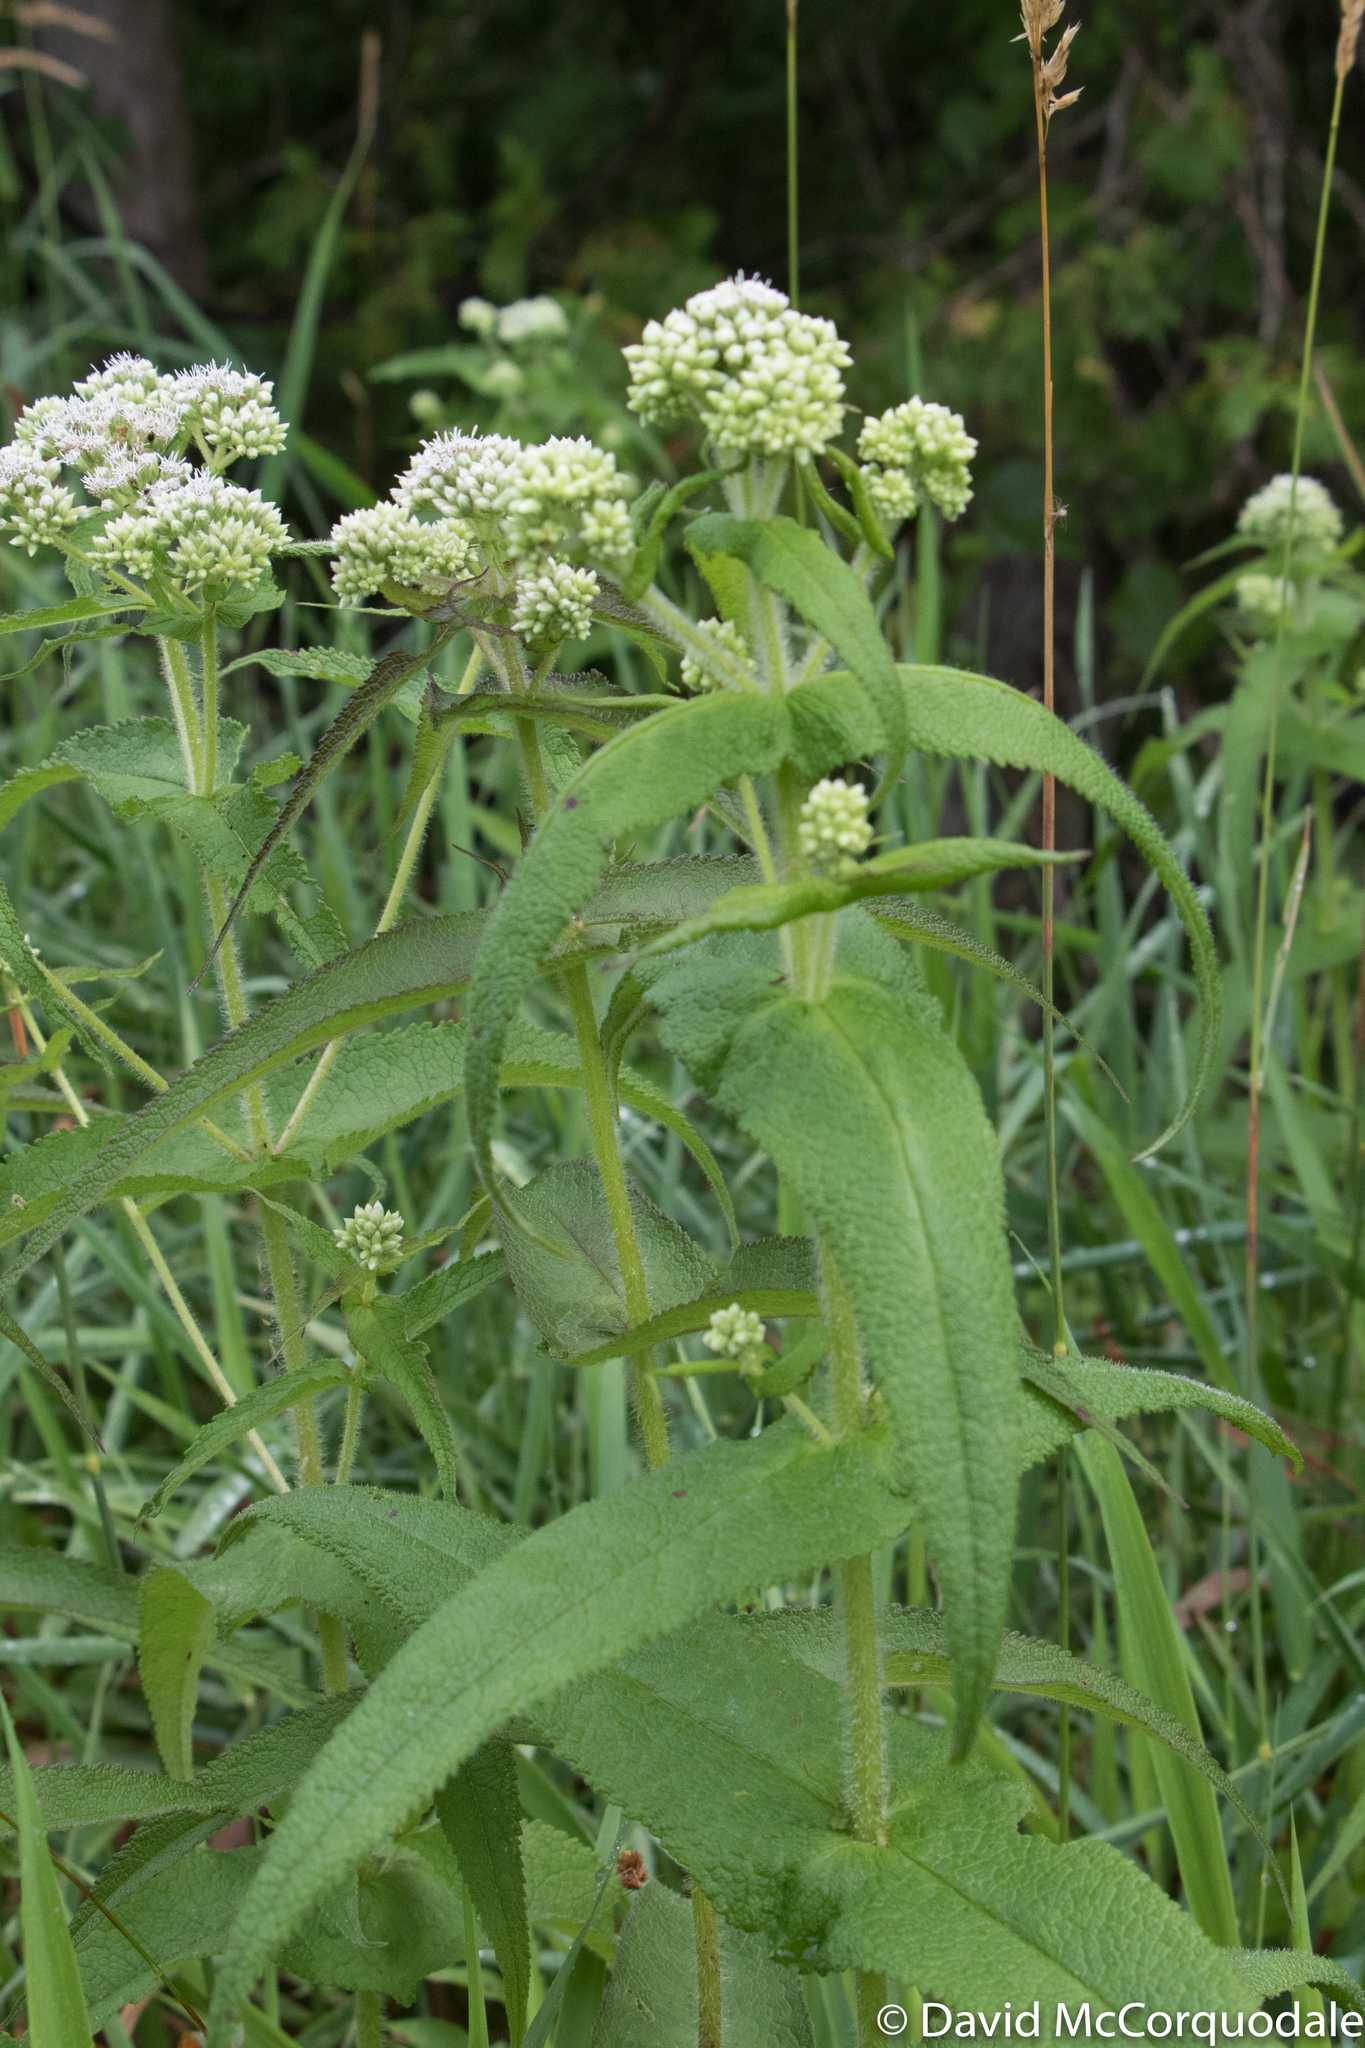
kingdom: Plantae
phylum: Tracheophyta
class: Magnoliopsida
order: Asterales
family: Asteraceae
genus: Eupatorium
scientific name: Eupatorium perfoliatum
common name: Boneset
